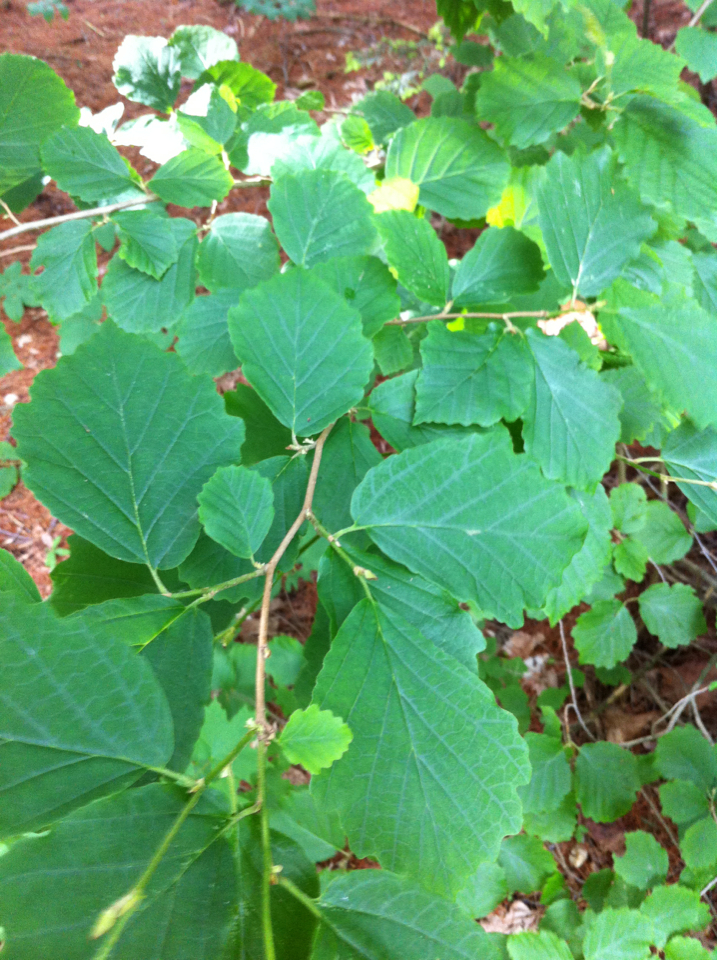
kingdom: Plantae
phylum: Tracheophyta
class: Magnoliopsida
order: Saxifragales
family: Hamamelidaceae
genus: Hamamelis
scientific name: Hamamelis virginiana
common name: Witch-hazel
